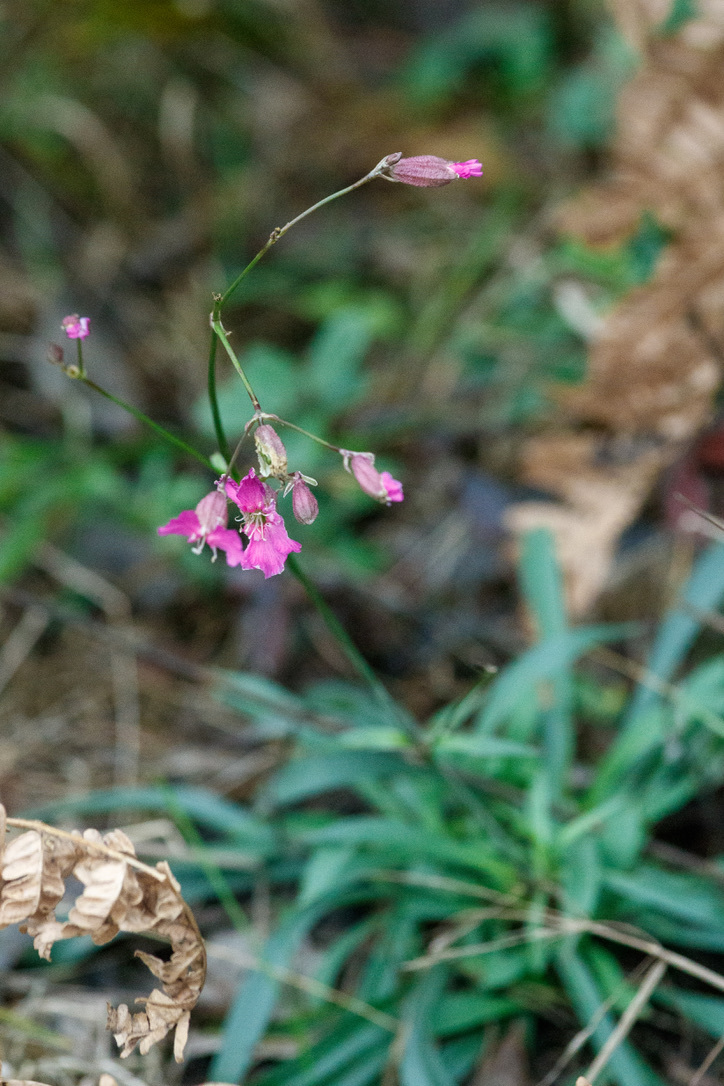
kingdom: Plantae
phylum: Tracheophyta
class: Magnoliopsida
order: Caryophyllales
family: Caryophyllaceae
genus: Viscaria
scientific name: Viscaria vulgaris
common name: Clammy campion
